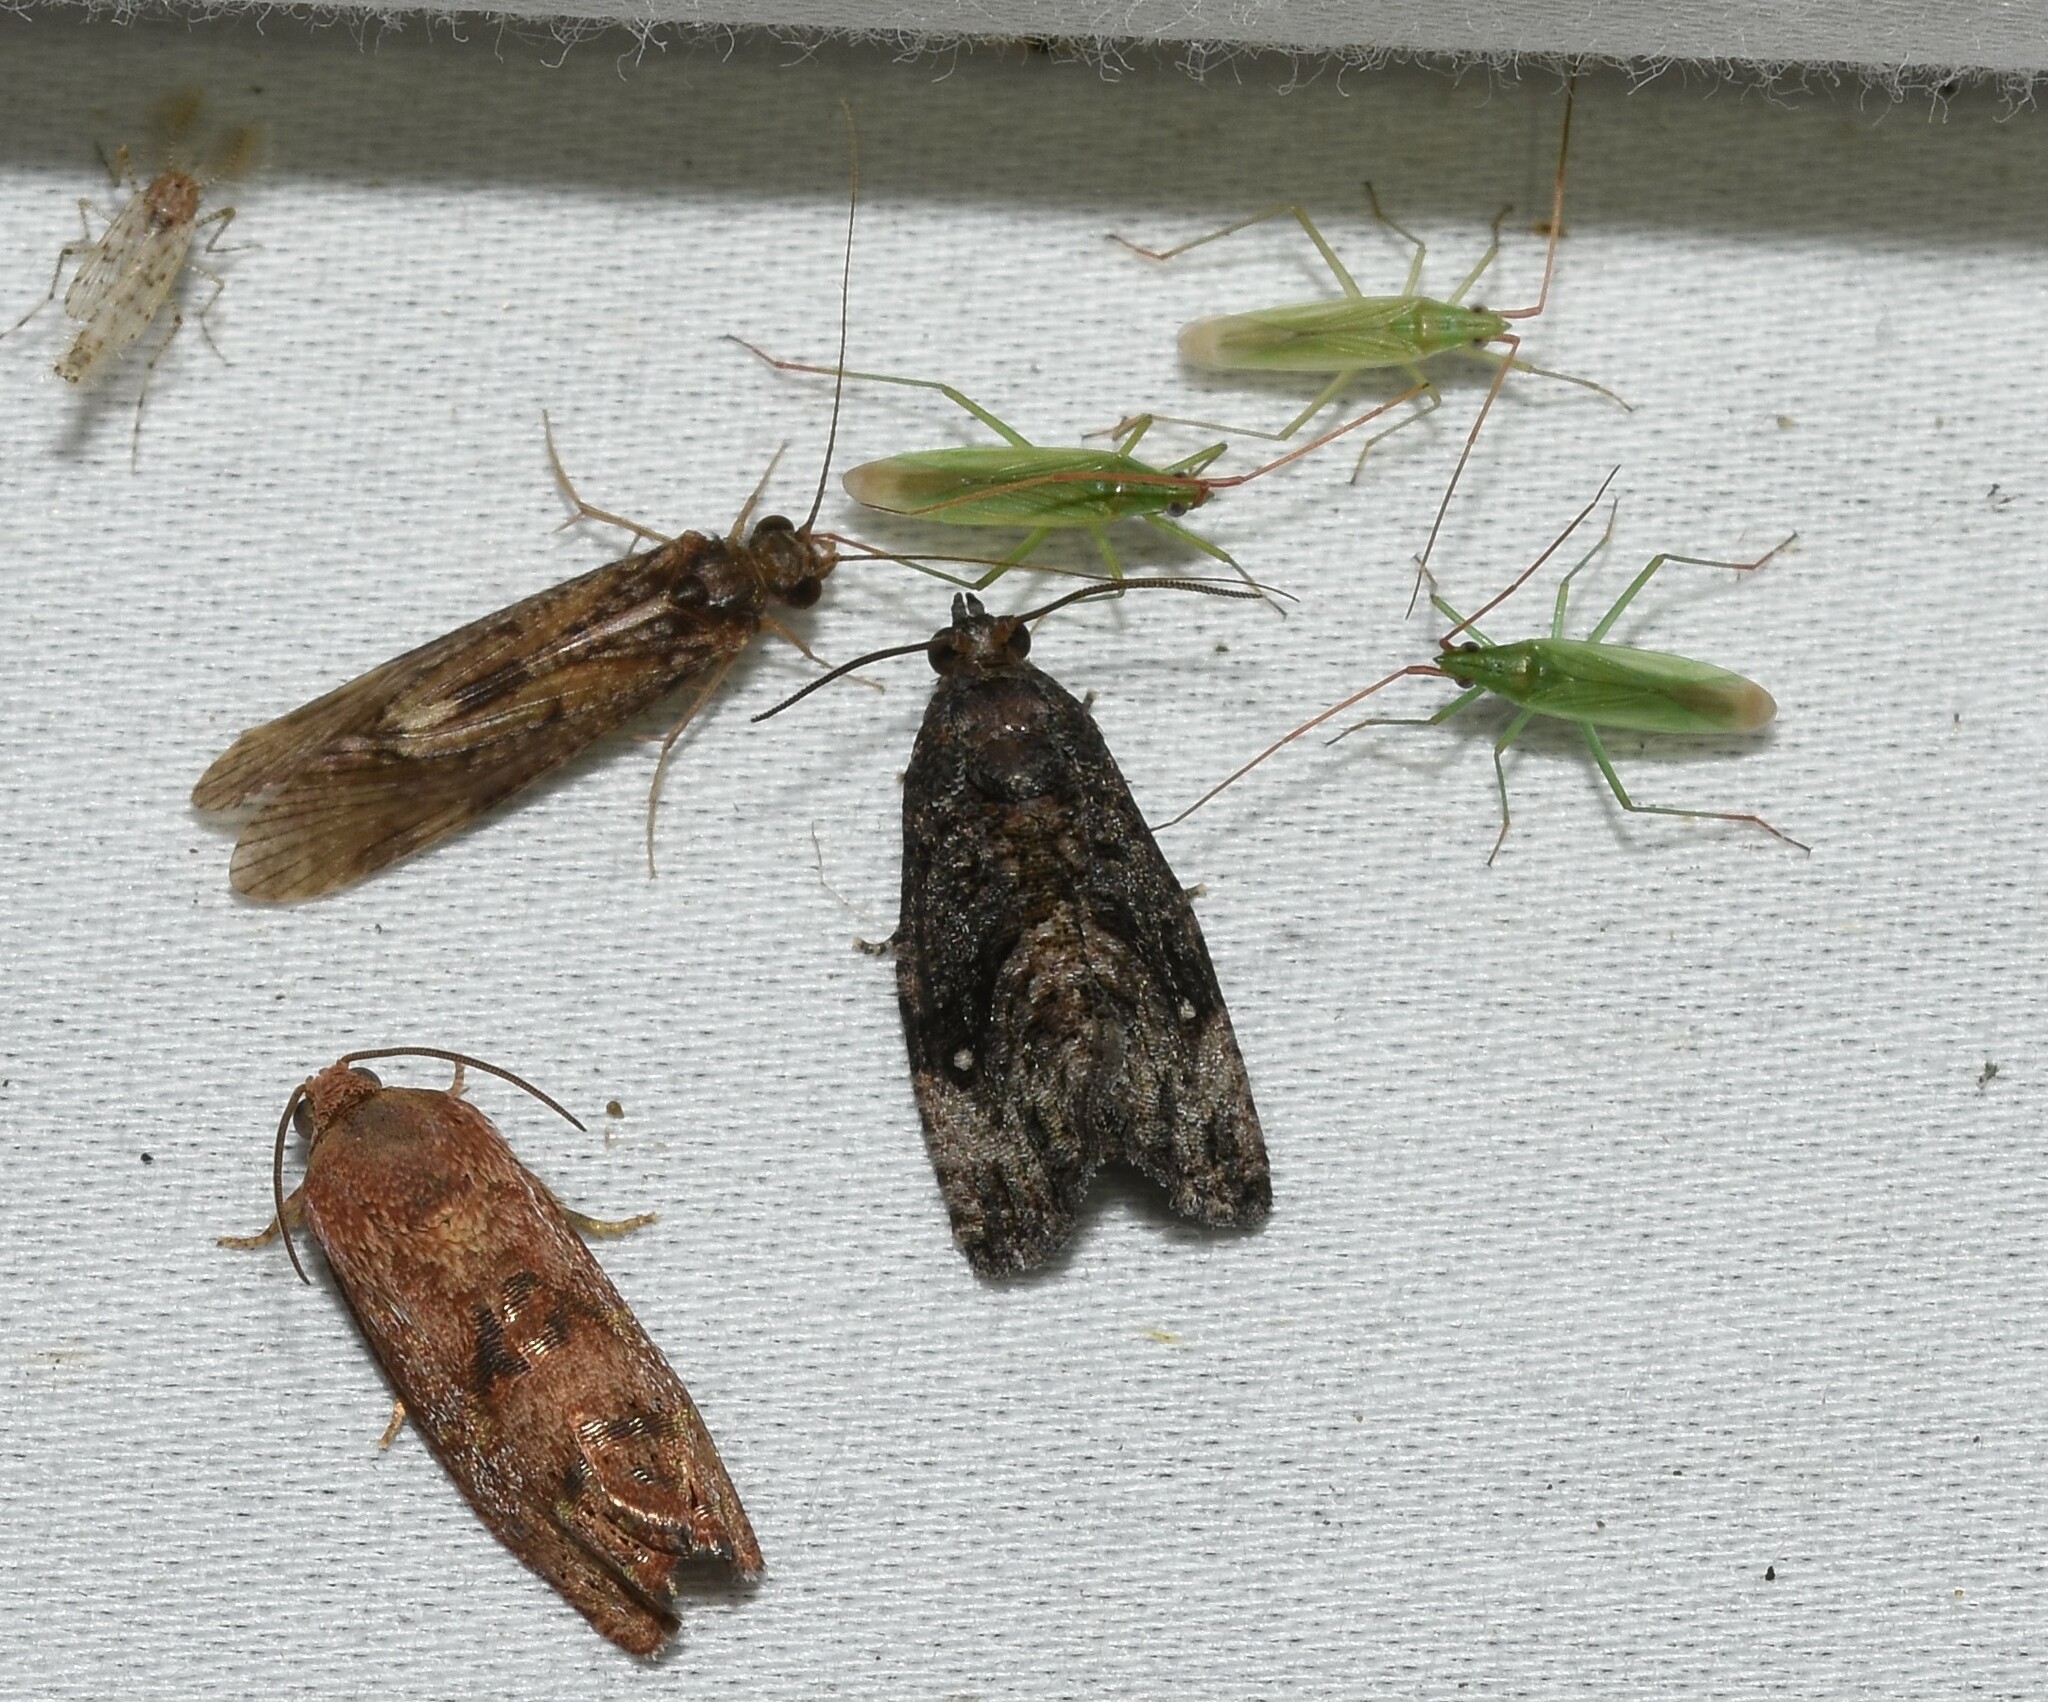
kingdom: Animalia
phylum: Arthropoda
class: Insecta
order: Lepidoptera
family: Tortricidae
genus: Gymnandrosoma
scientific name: Gymnandrosoma punctidiscanum
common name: Dotted ecdytolopha moth
